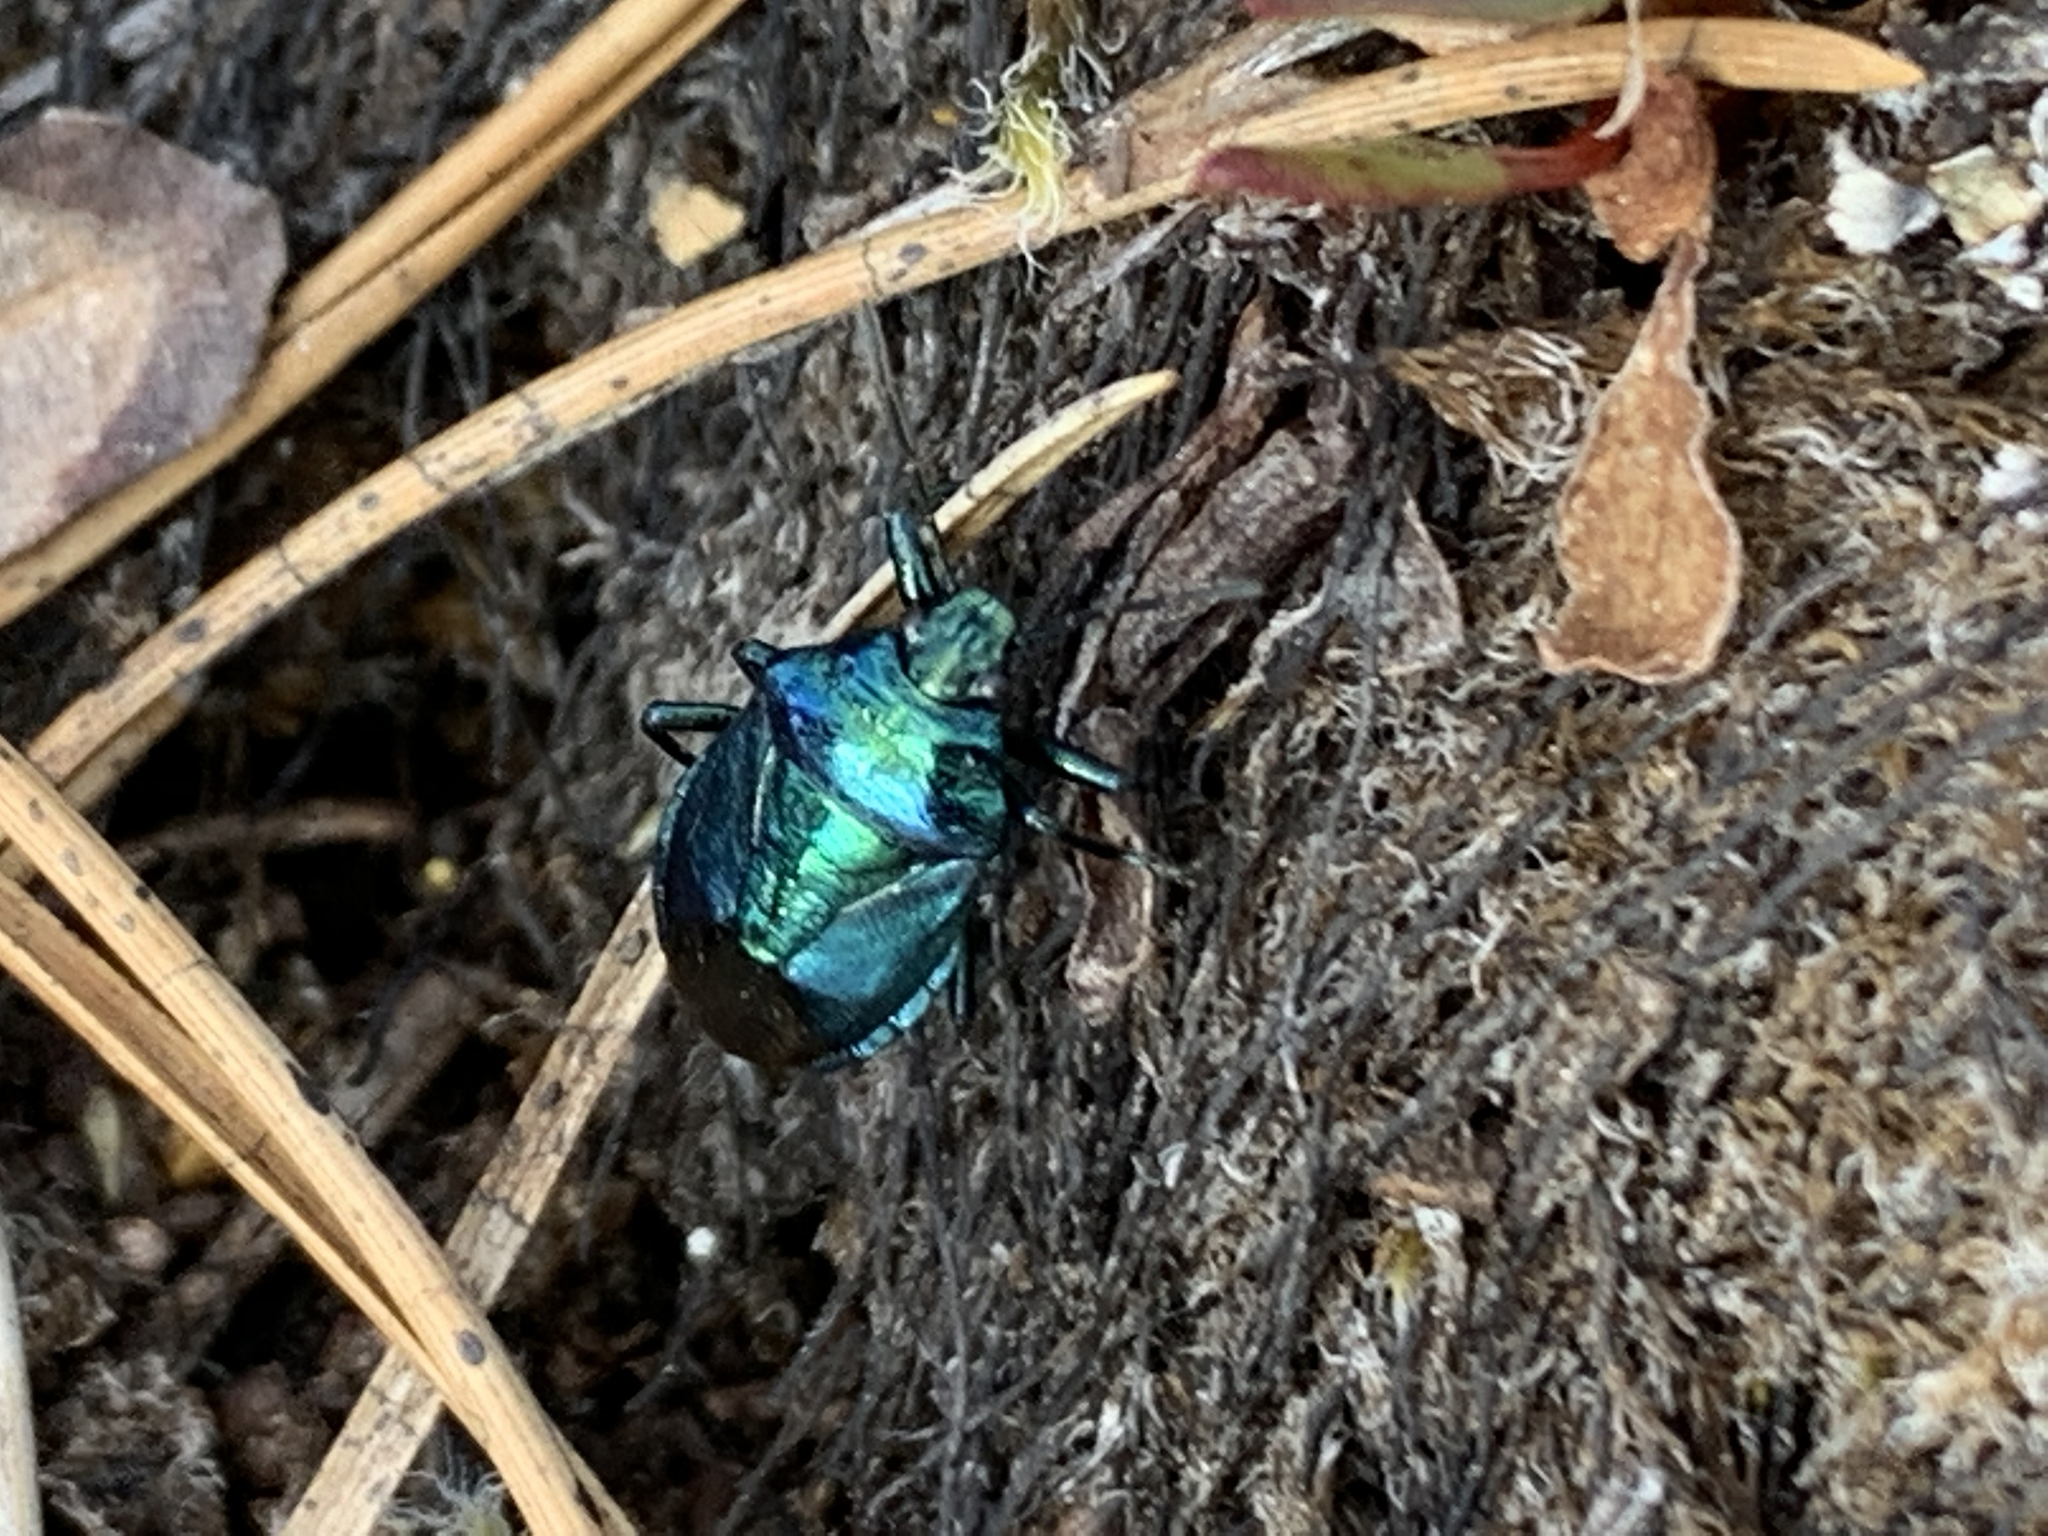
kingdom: Animalia
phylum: Arthropoda
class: Insecta
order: Hemiptera
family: Pentatomidae
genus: Zicrona
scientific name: Zicrona
